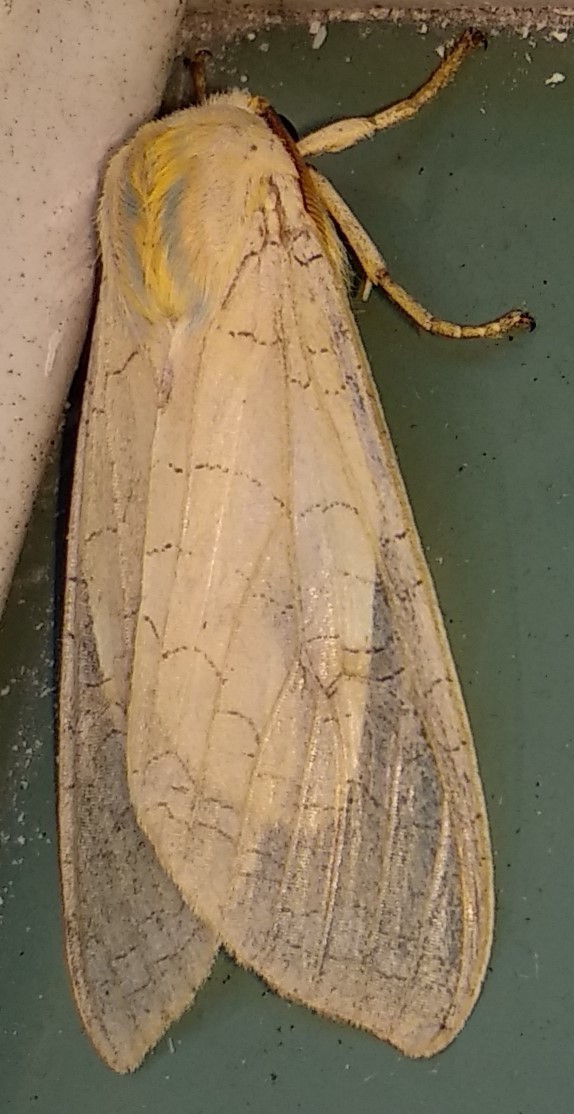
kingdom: Animalia
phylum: Arthropoda
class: Insecta
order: Lepidoptera
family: Erebidae
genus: Halysidota
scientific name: Halysidota tessellaris
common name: Banded tussock moth
